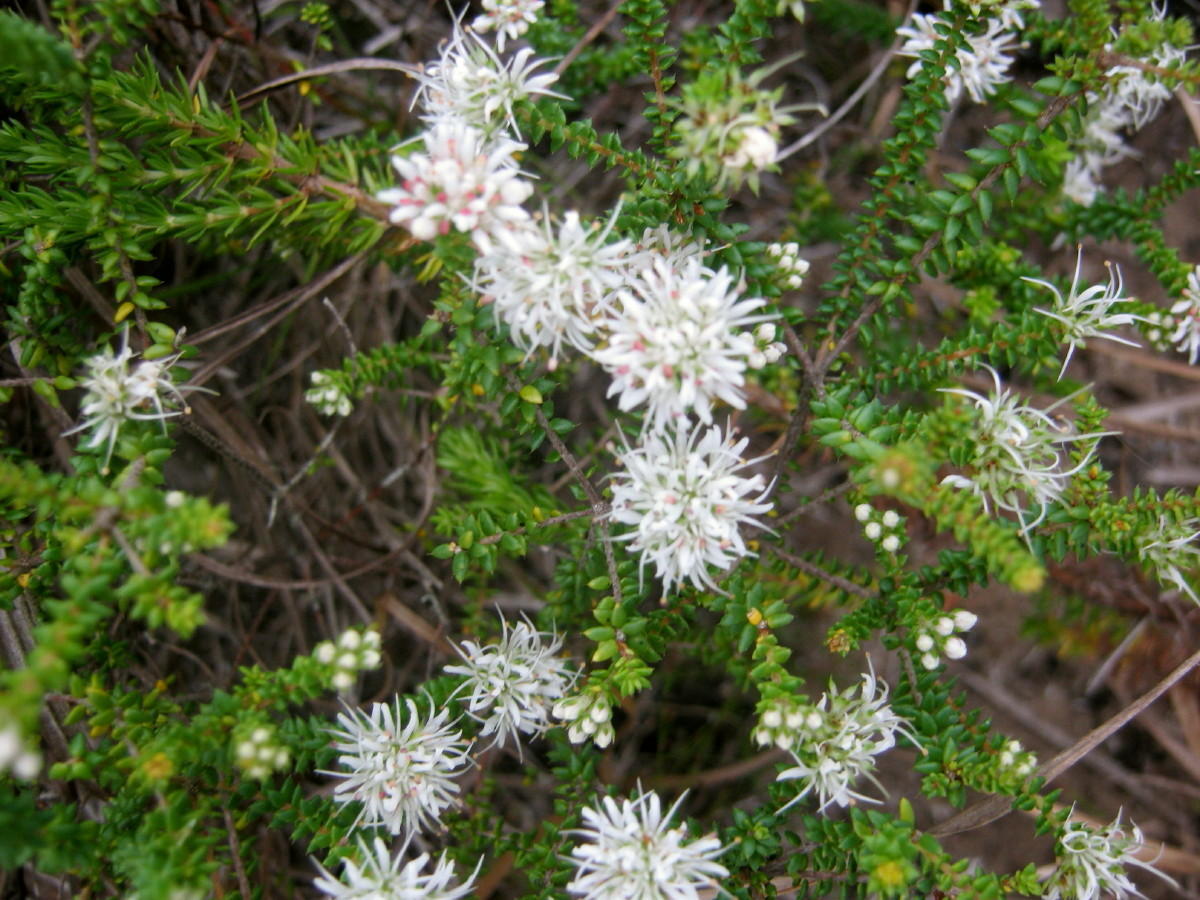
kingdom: Plantae
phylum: Tracheophyta
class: Magnoliopsida
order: Sapindales
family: Rutaceae
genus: Agathosma
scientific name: Agathosma apiculata
